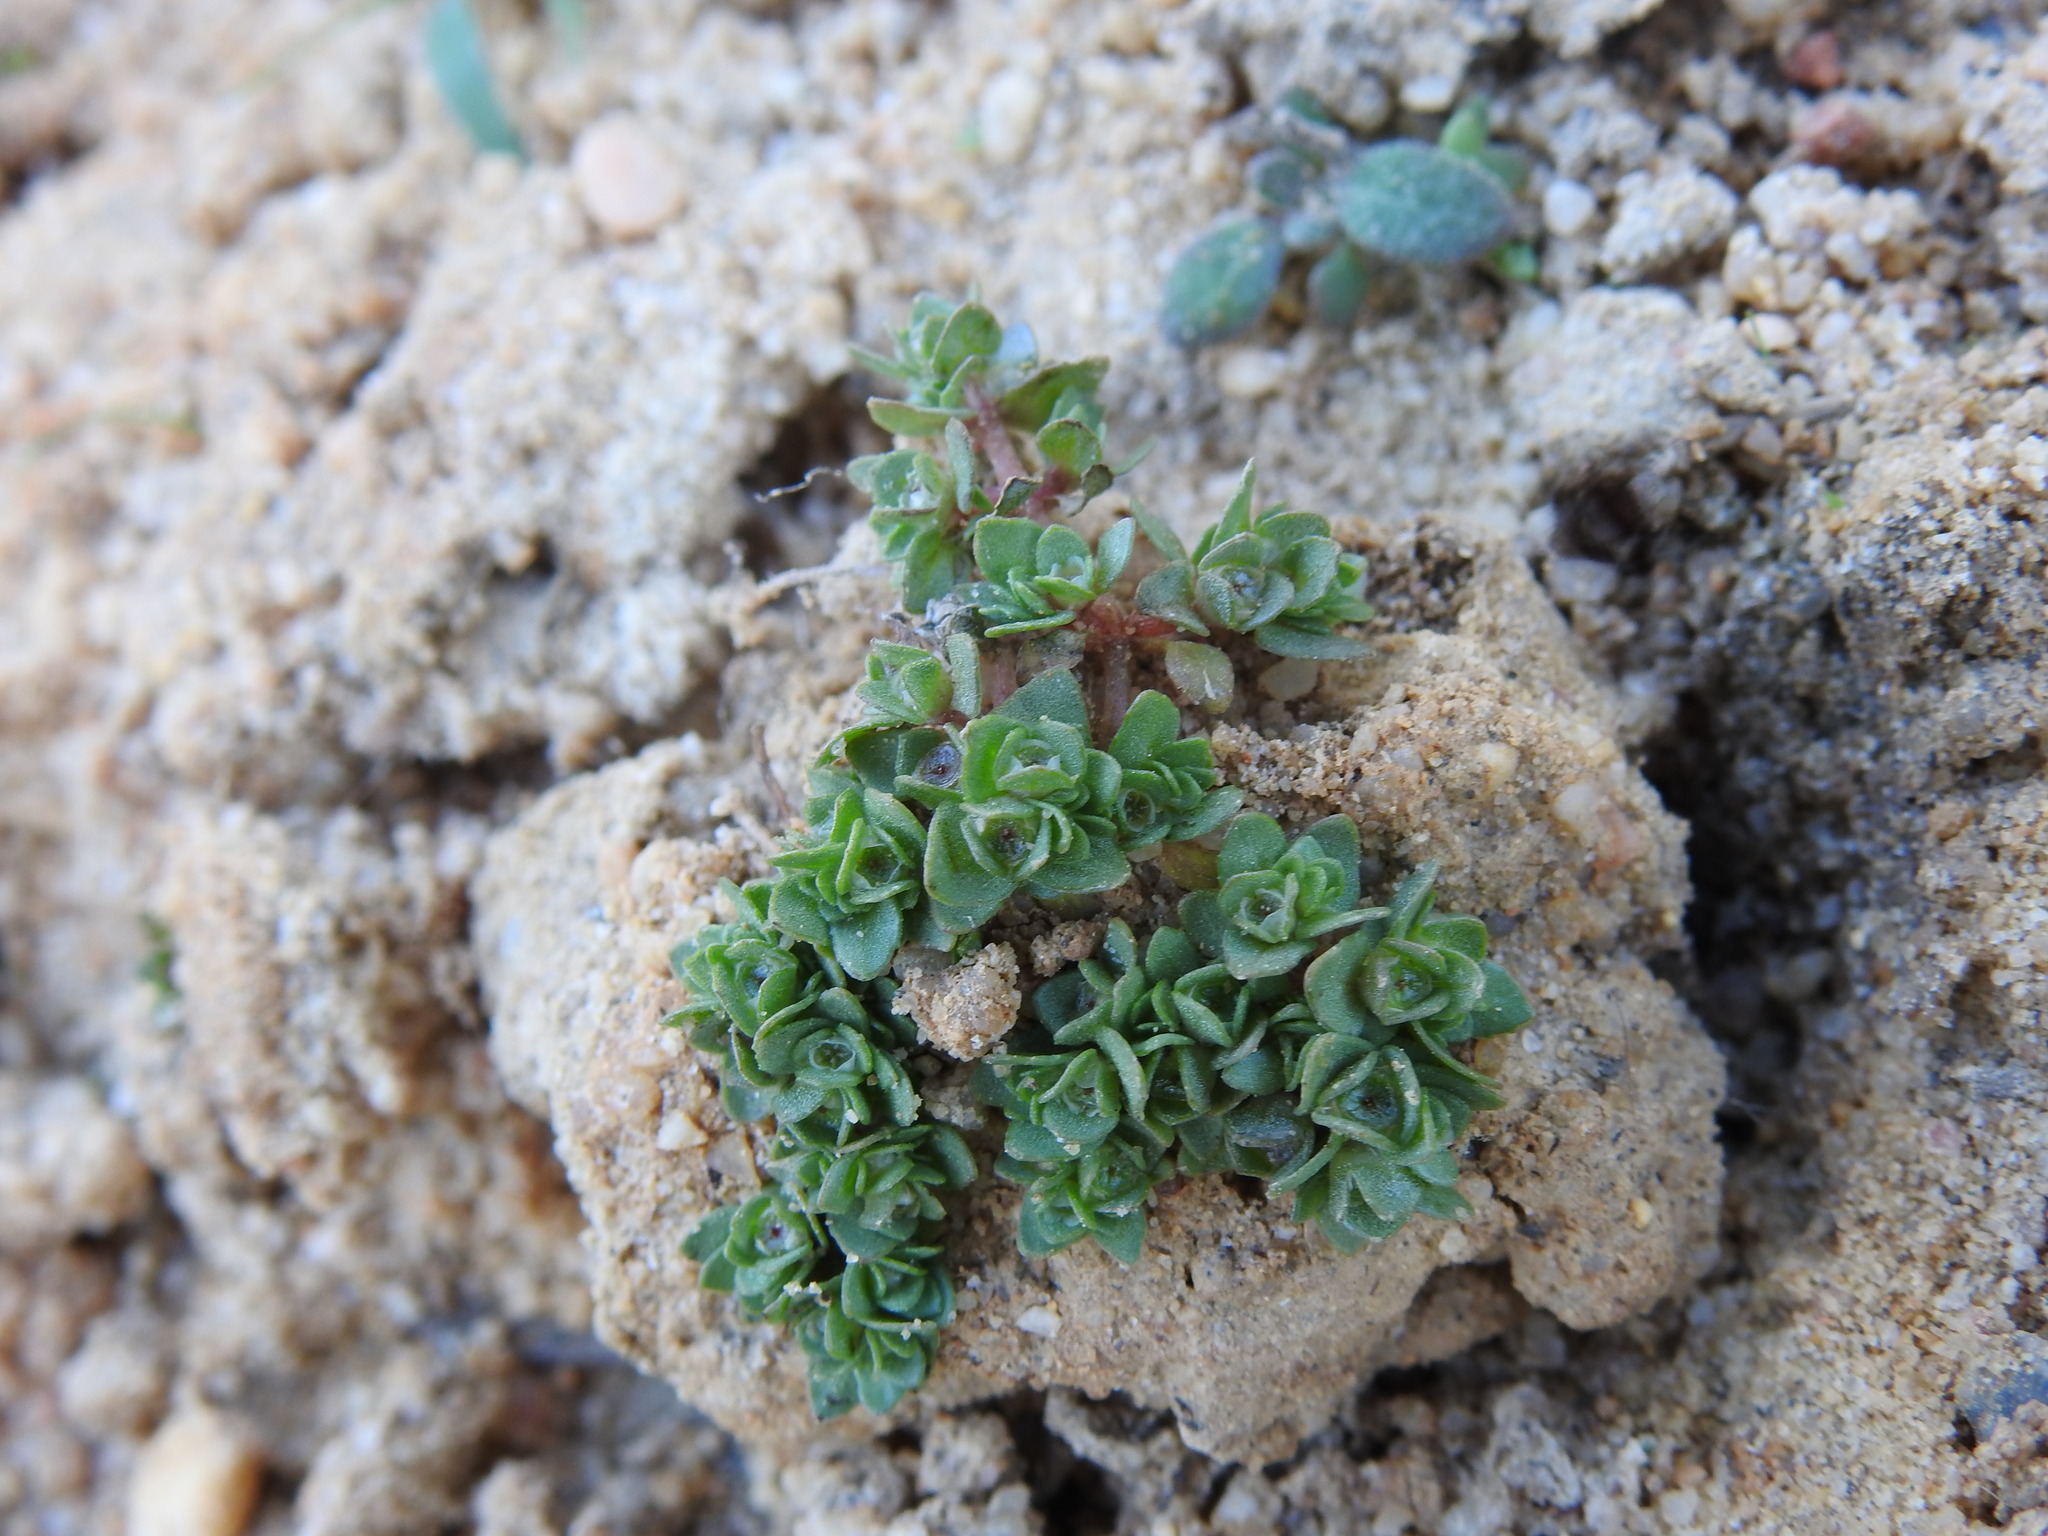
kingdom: Plantae
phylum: Tracheophyta
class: Magnoliopsida
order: Malpighiales
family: Elatinaceae
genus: Elatine
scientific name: Elatine brochonii
